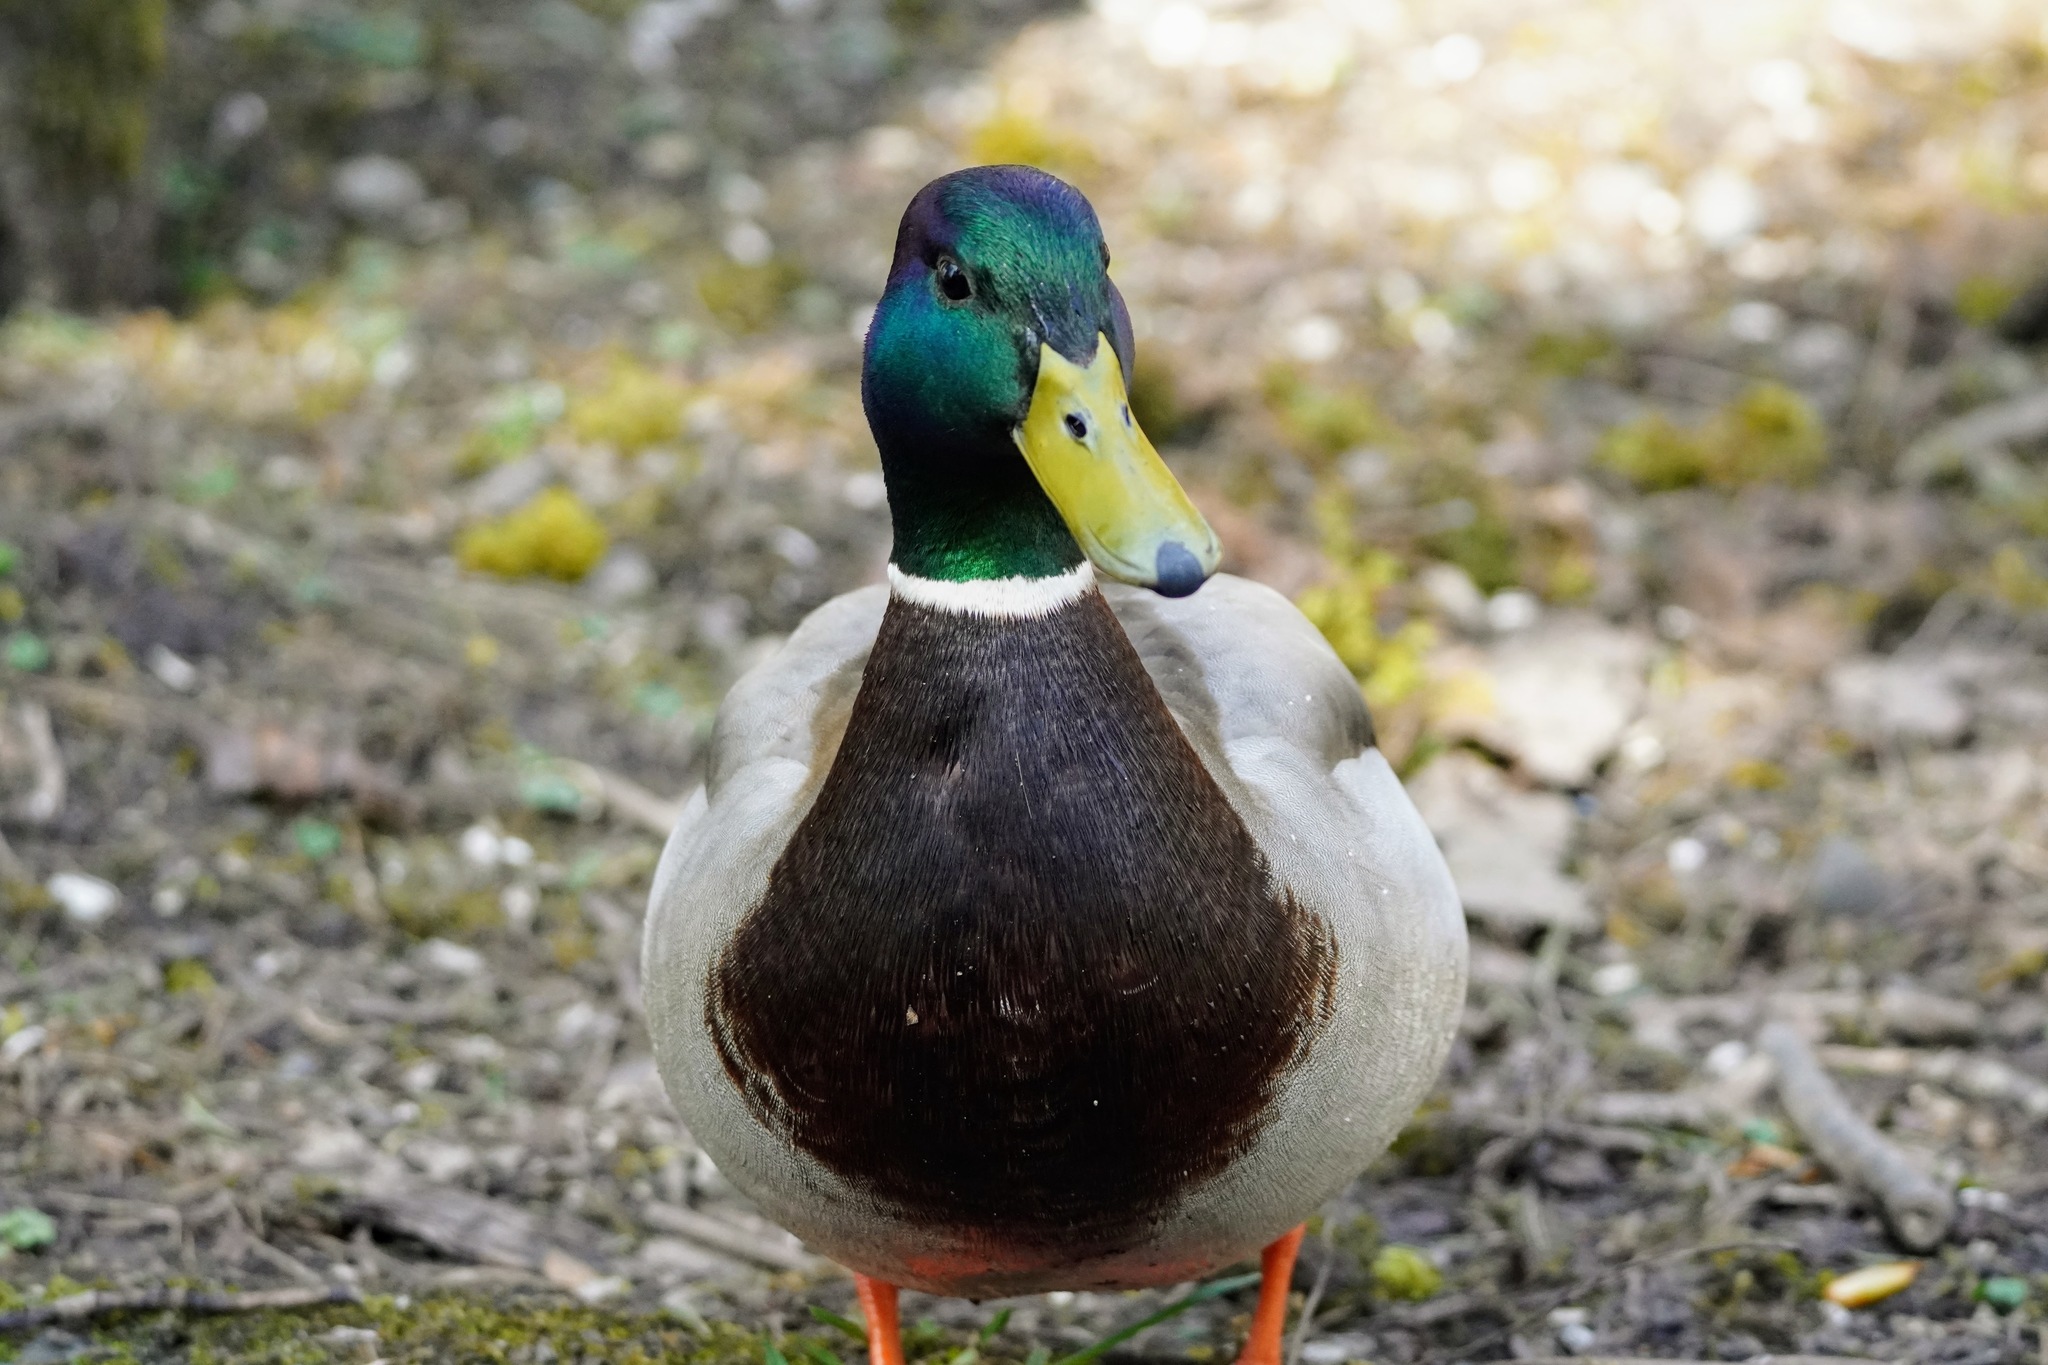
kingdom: Animalia
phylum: Chordata
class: Aves
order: Anseriformes
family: Anatidae
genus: Anas
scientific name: Anas platyrhynchos
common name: Mallard
